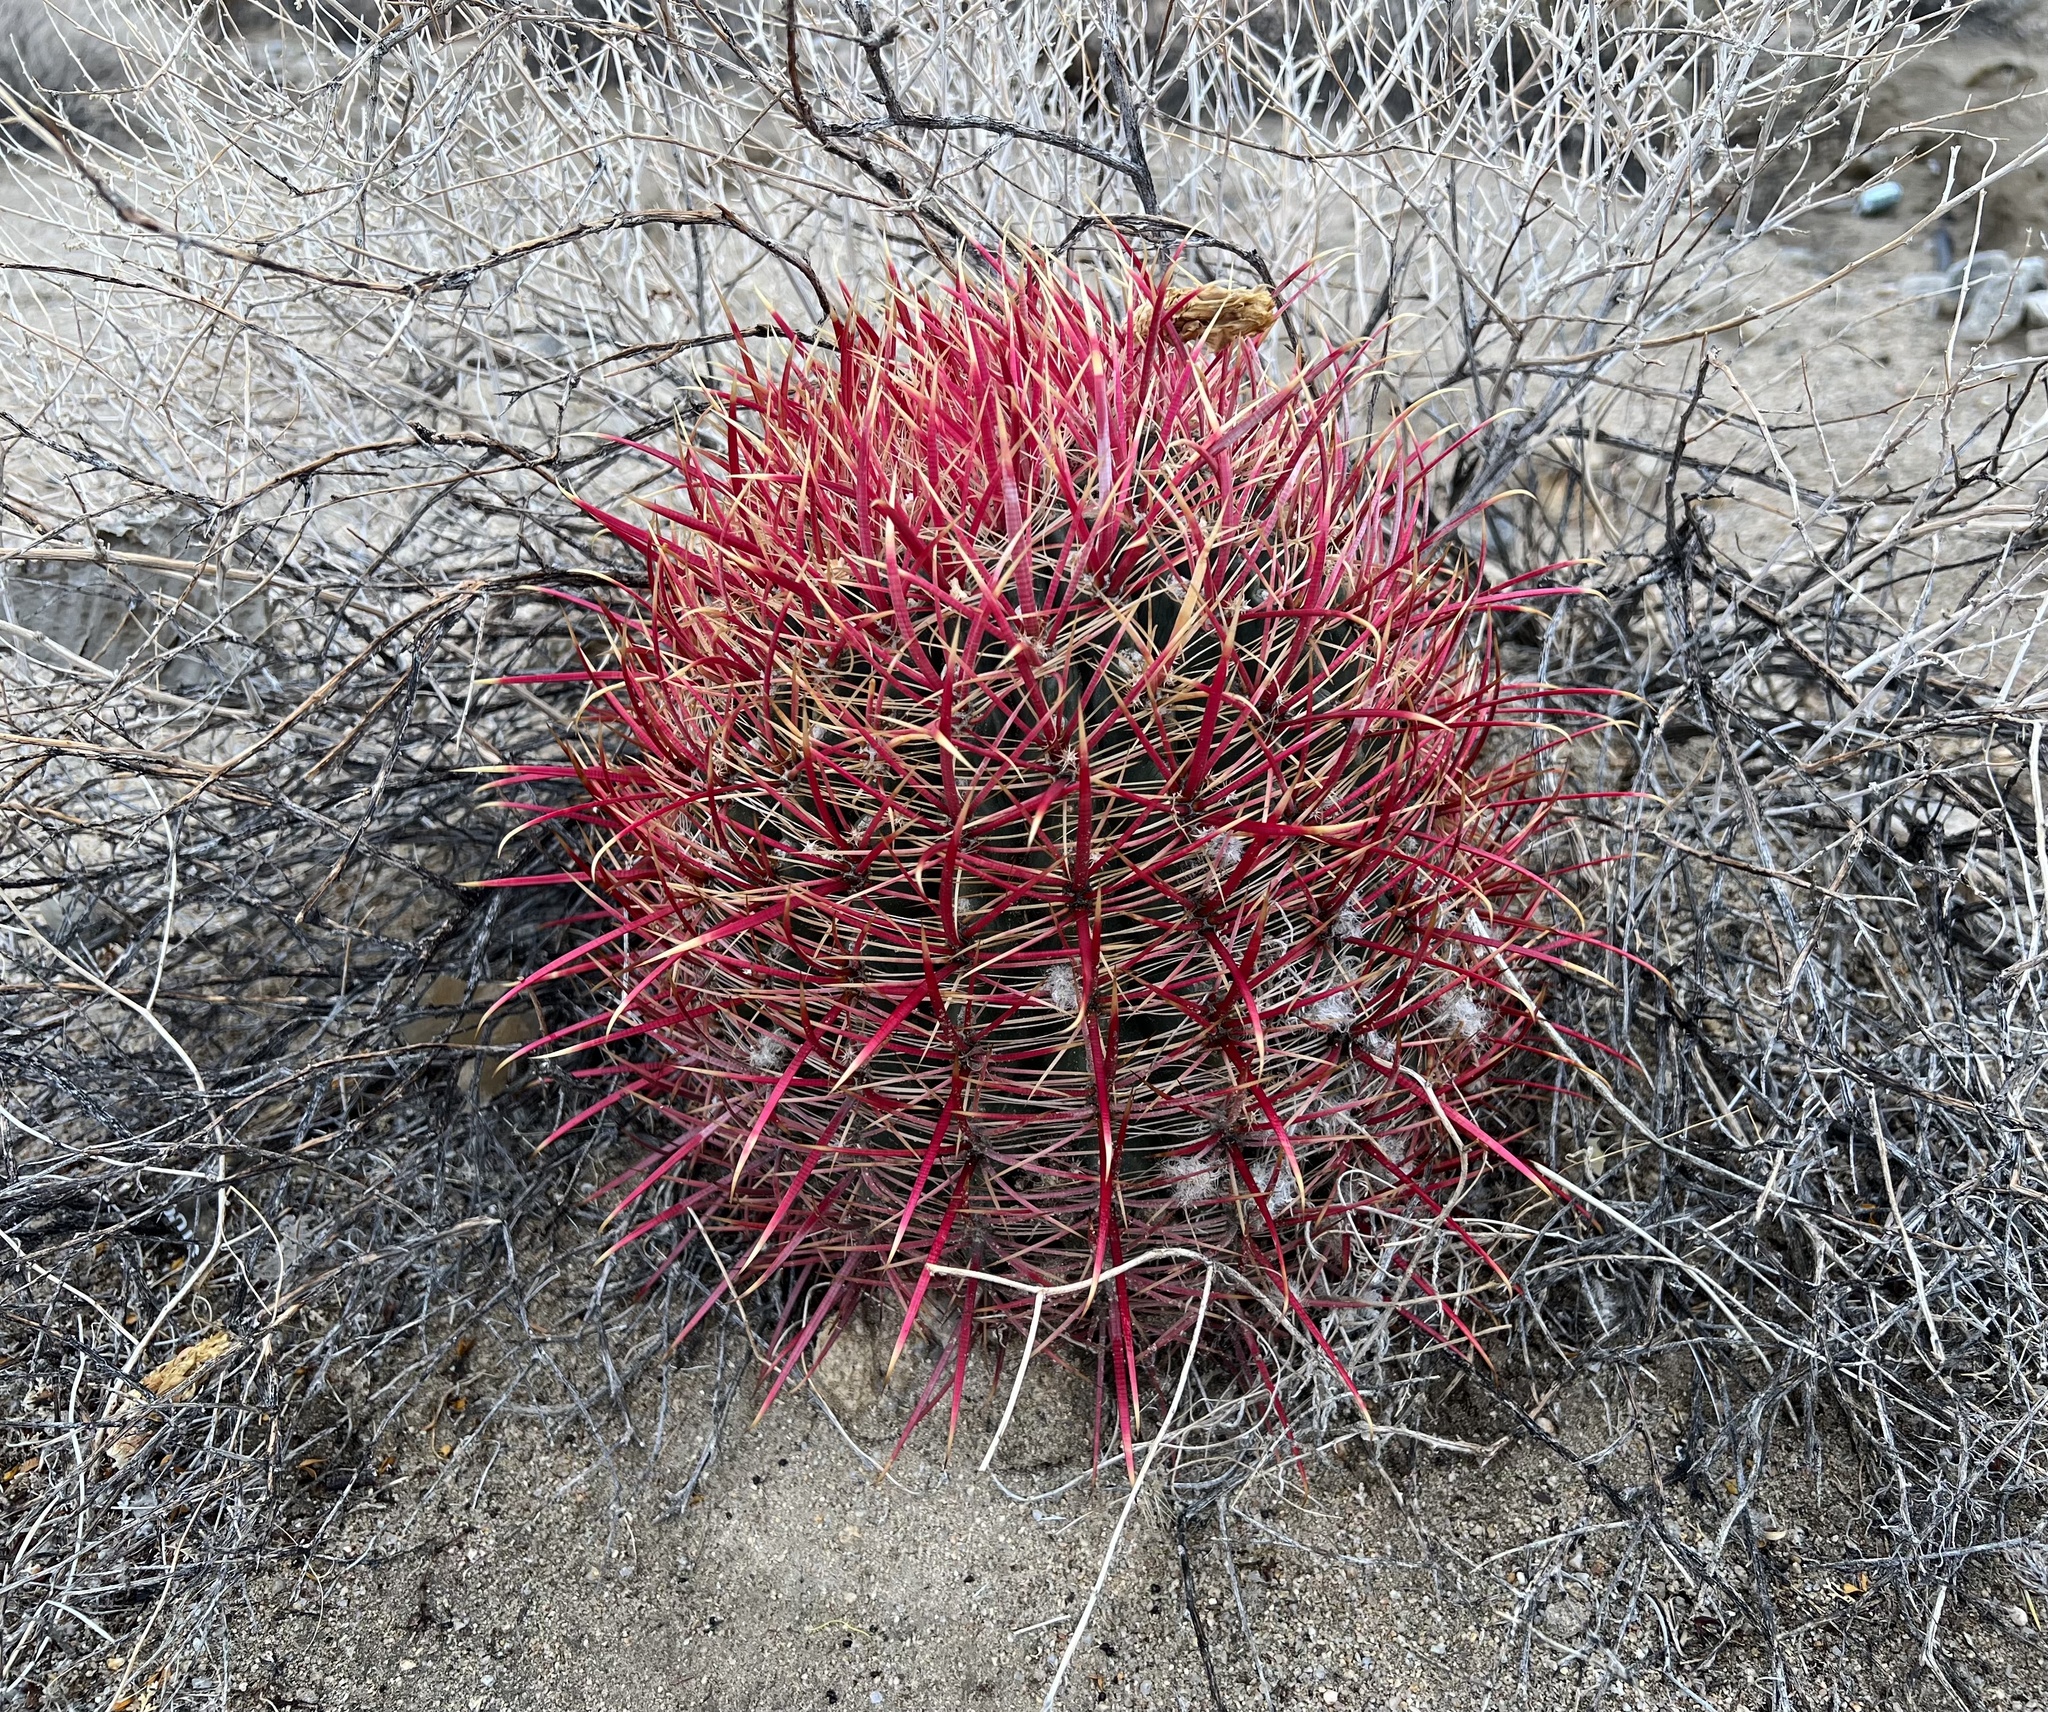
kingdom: Plantae
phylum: Tracheophyta
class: Magnoliopsida
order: Caryophyllales
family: Cactaceae
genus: Ferocactus
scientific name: Ferocactus cylindraceus
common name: California barrel cactus
